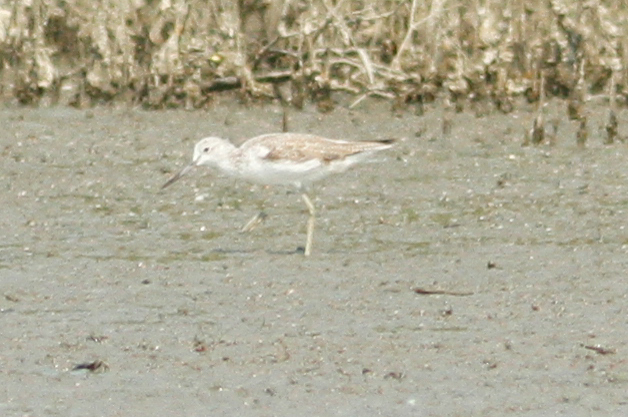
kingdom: Animalia
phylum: Chordata
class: Aves
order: Charadriiformes
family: Scolopacidae
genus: Tringa
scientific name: Tringa nebularia
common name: Common greenshank
